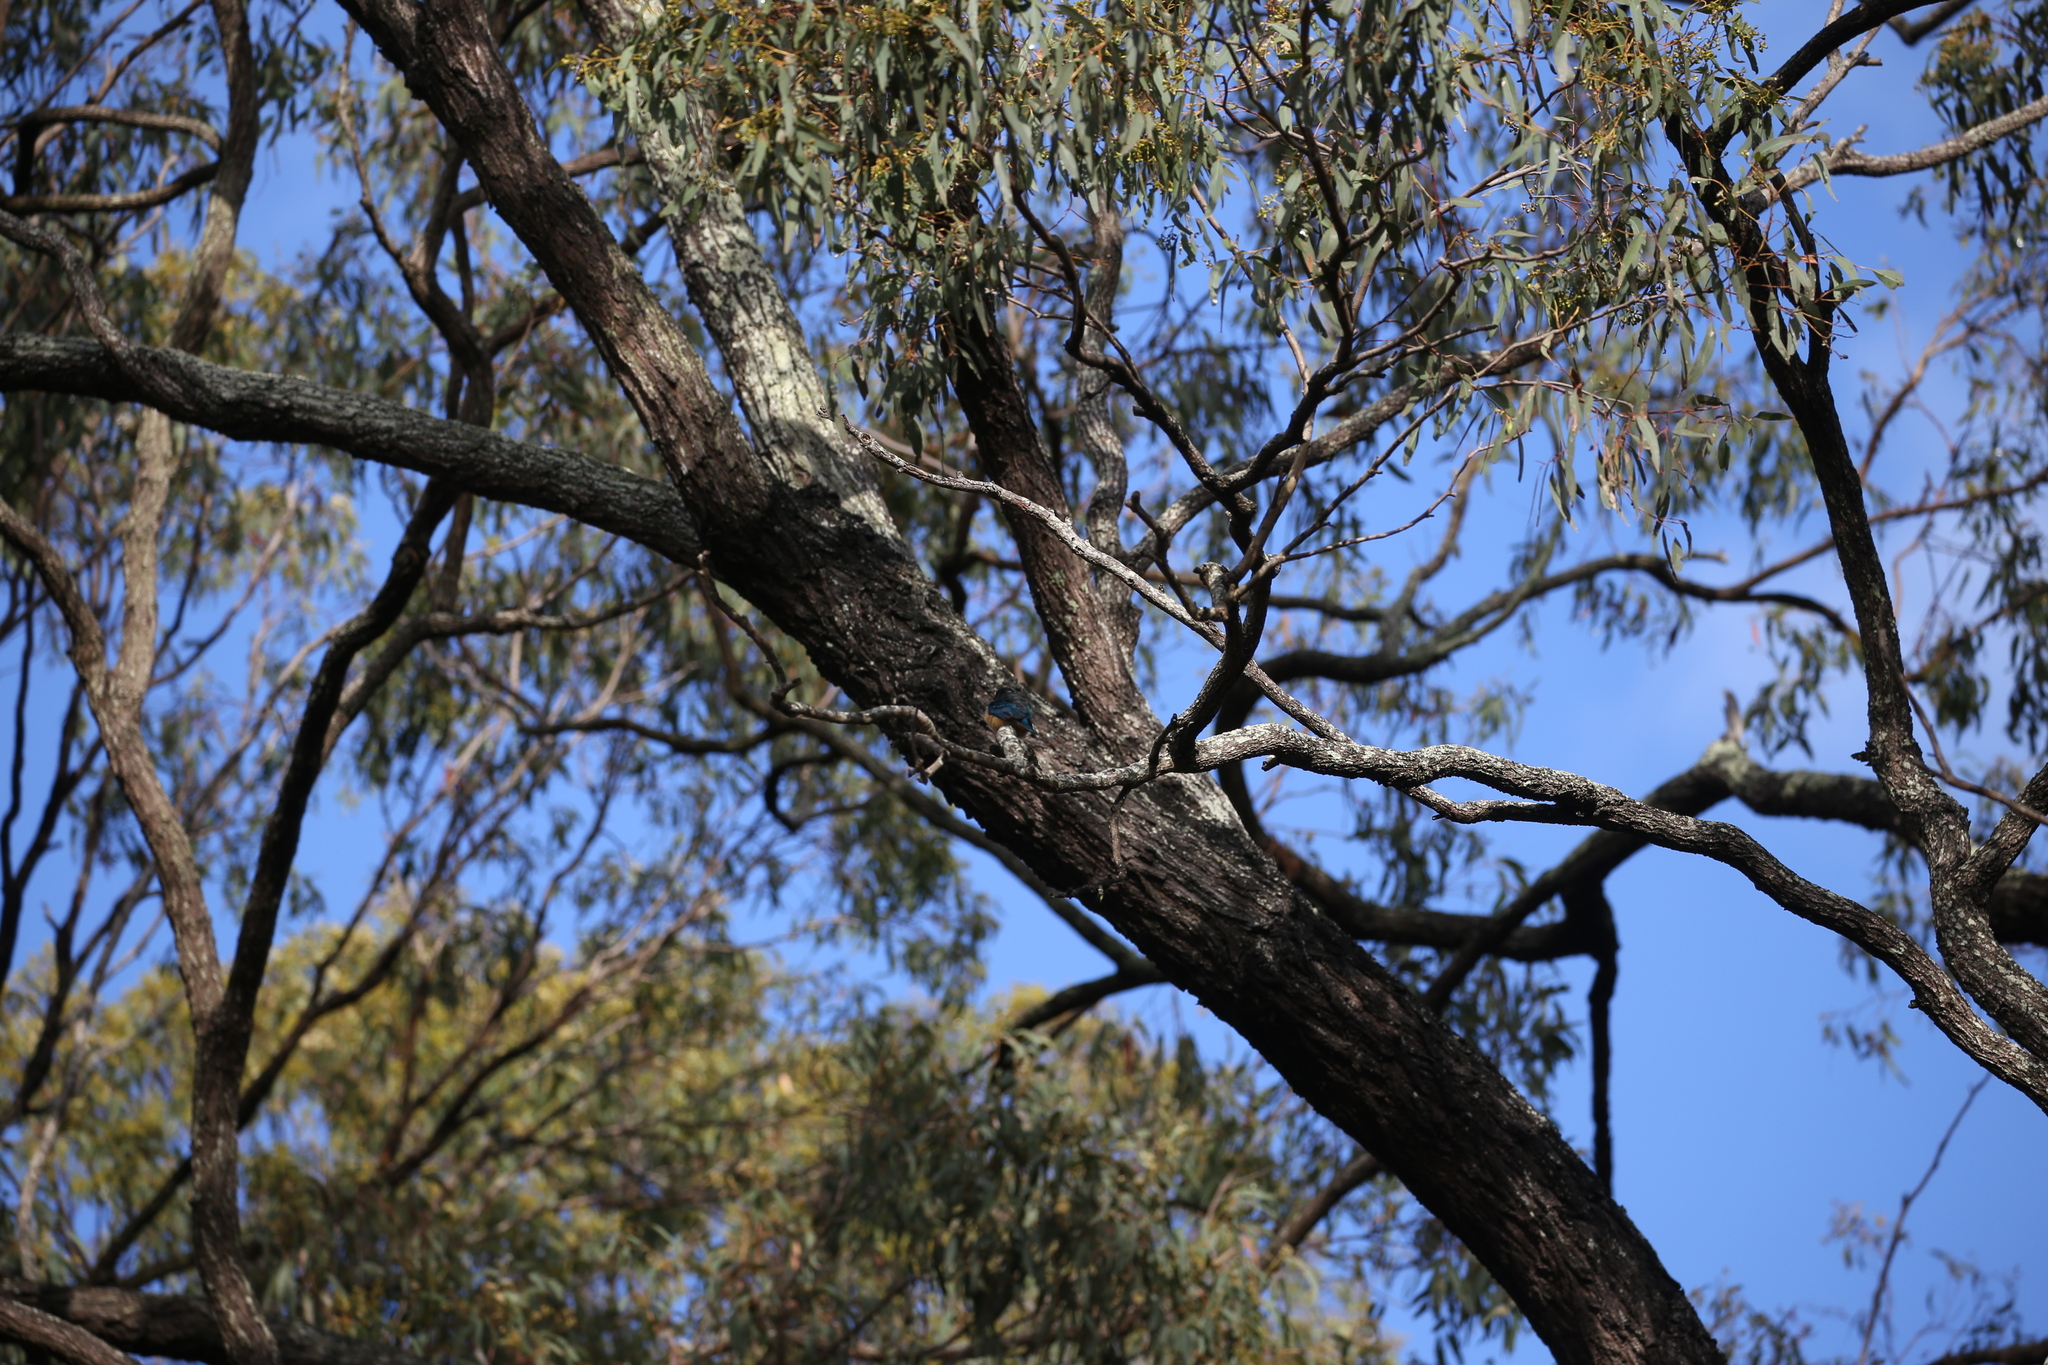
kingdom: Animalia
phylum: Chordata
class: Aves
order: Coraciiformes
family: Alcedinidae
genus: Todiramphus
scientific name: Todiramphus sanctus
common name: Sacred kingfisher
